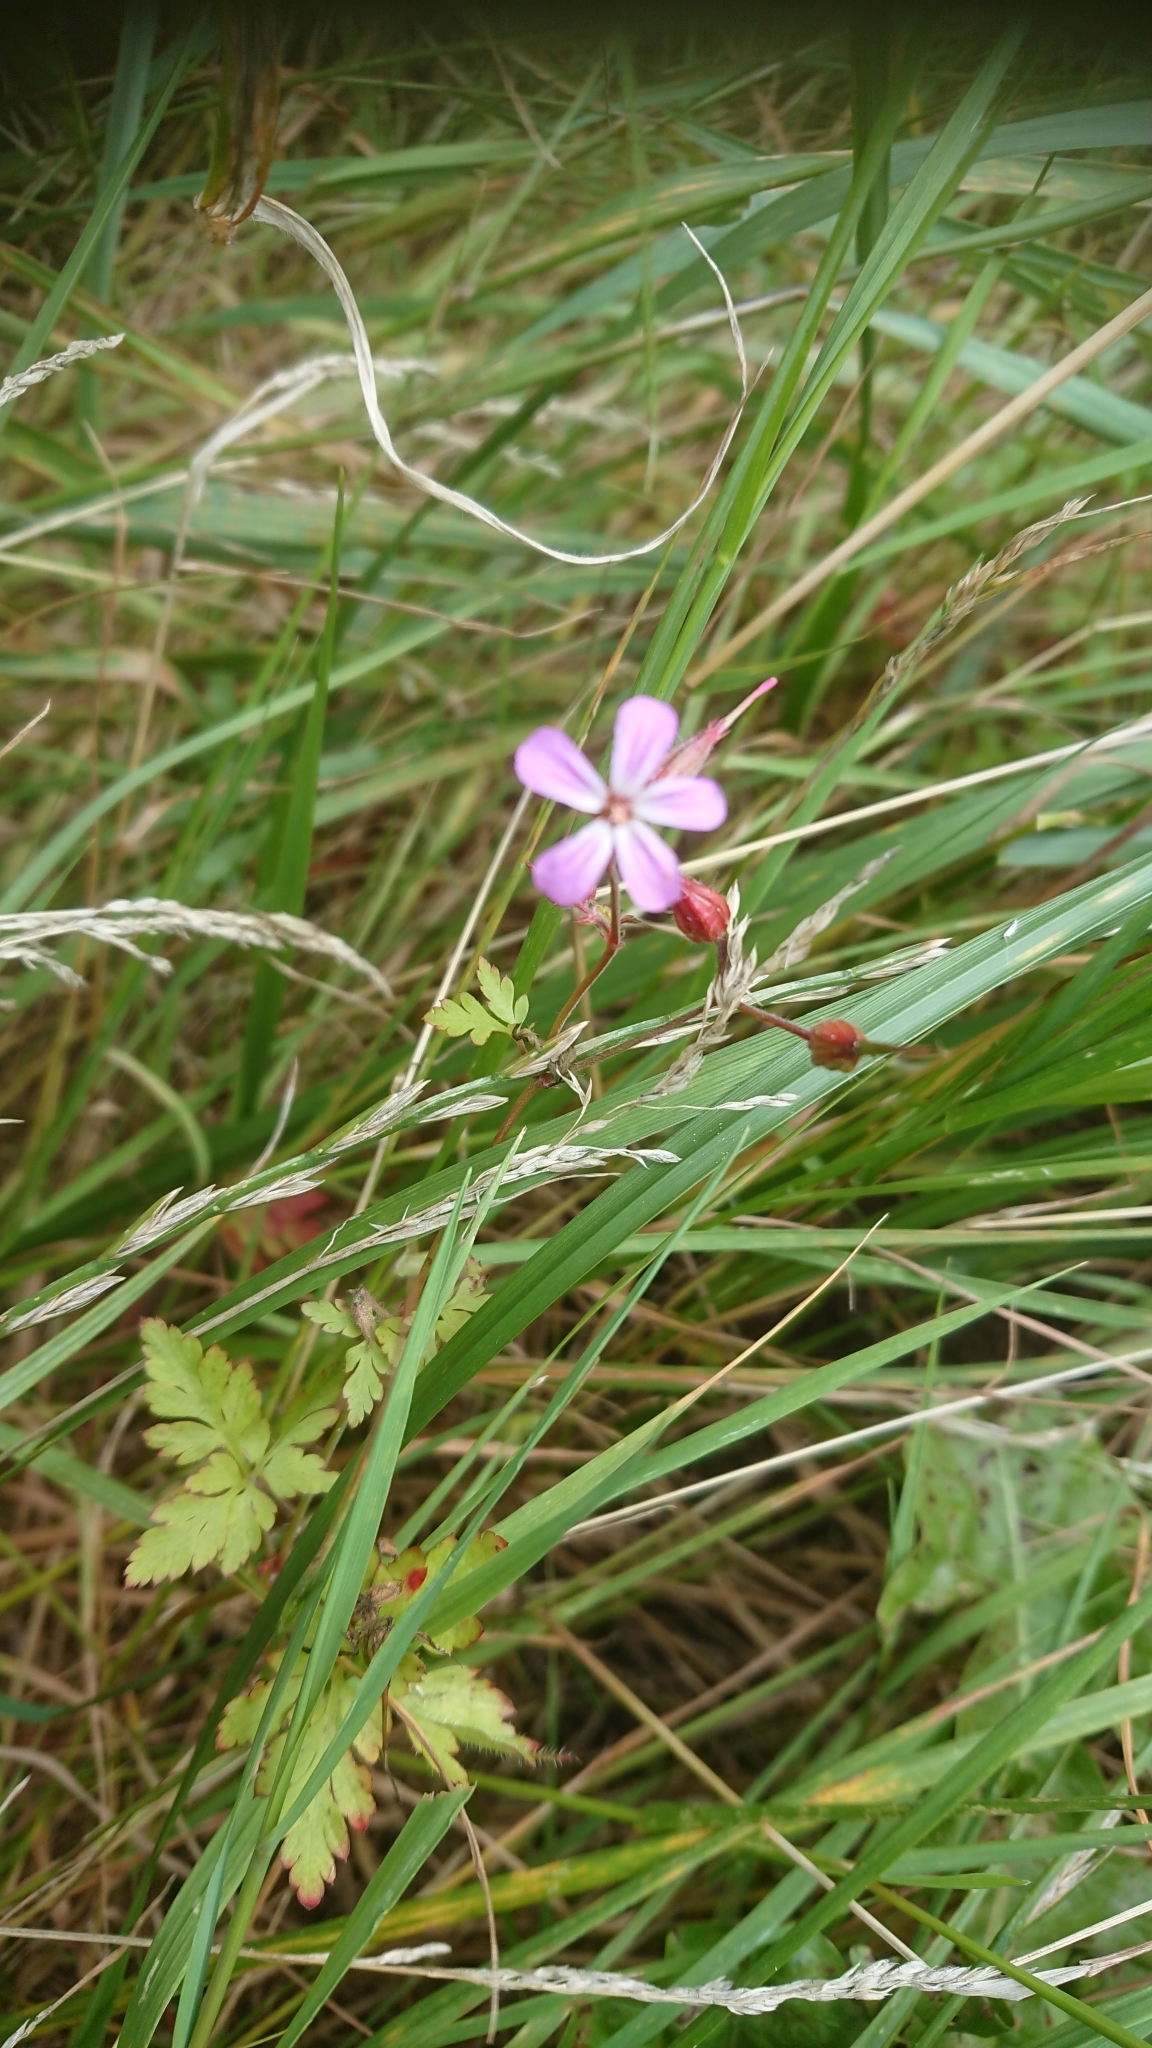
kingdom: Plantae
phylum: Tracheophyta
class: Magnoliopsida
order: Geraniales
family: Geraniaceae
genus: Geranium
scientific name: Geranium robertianum
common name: Herb-robert
